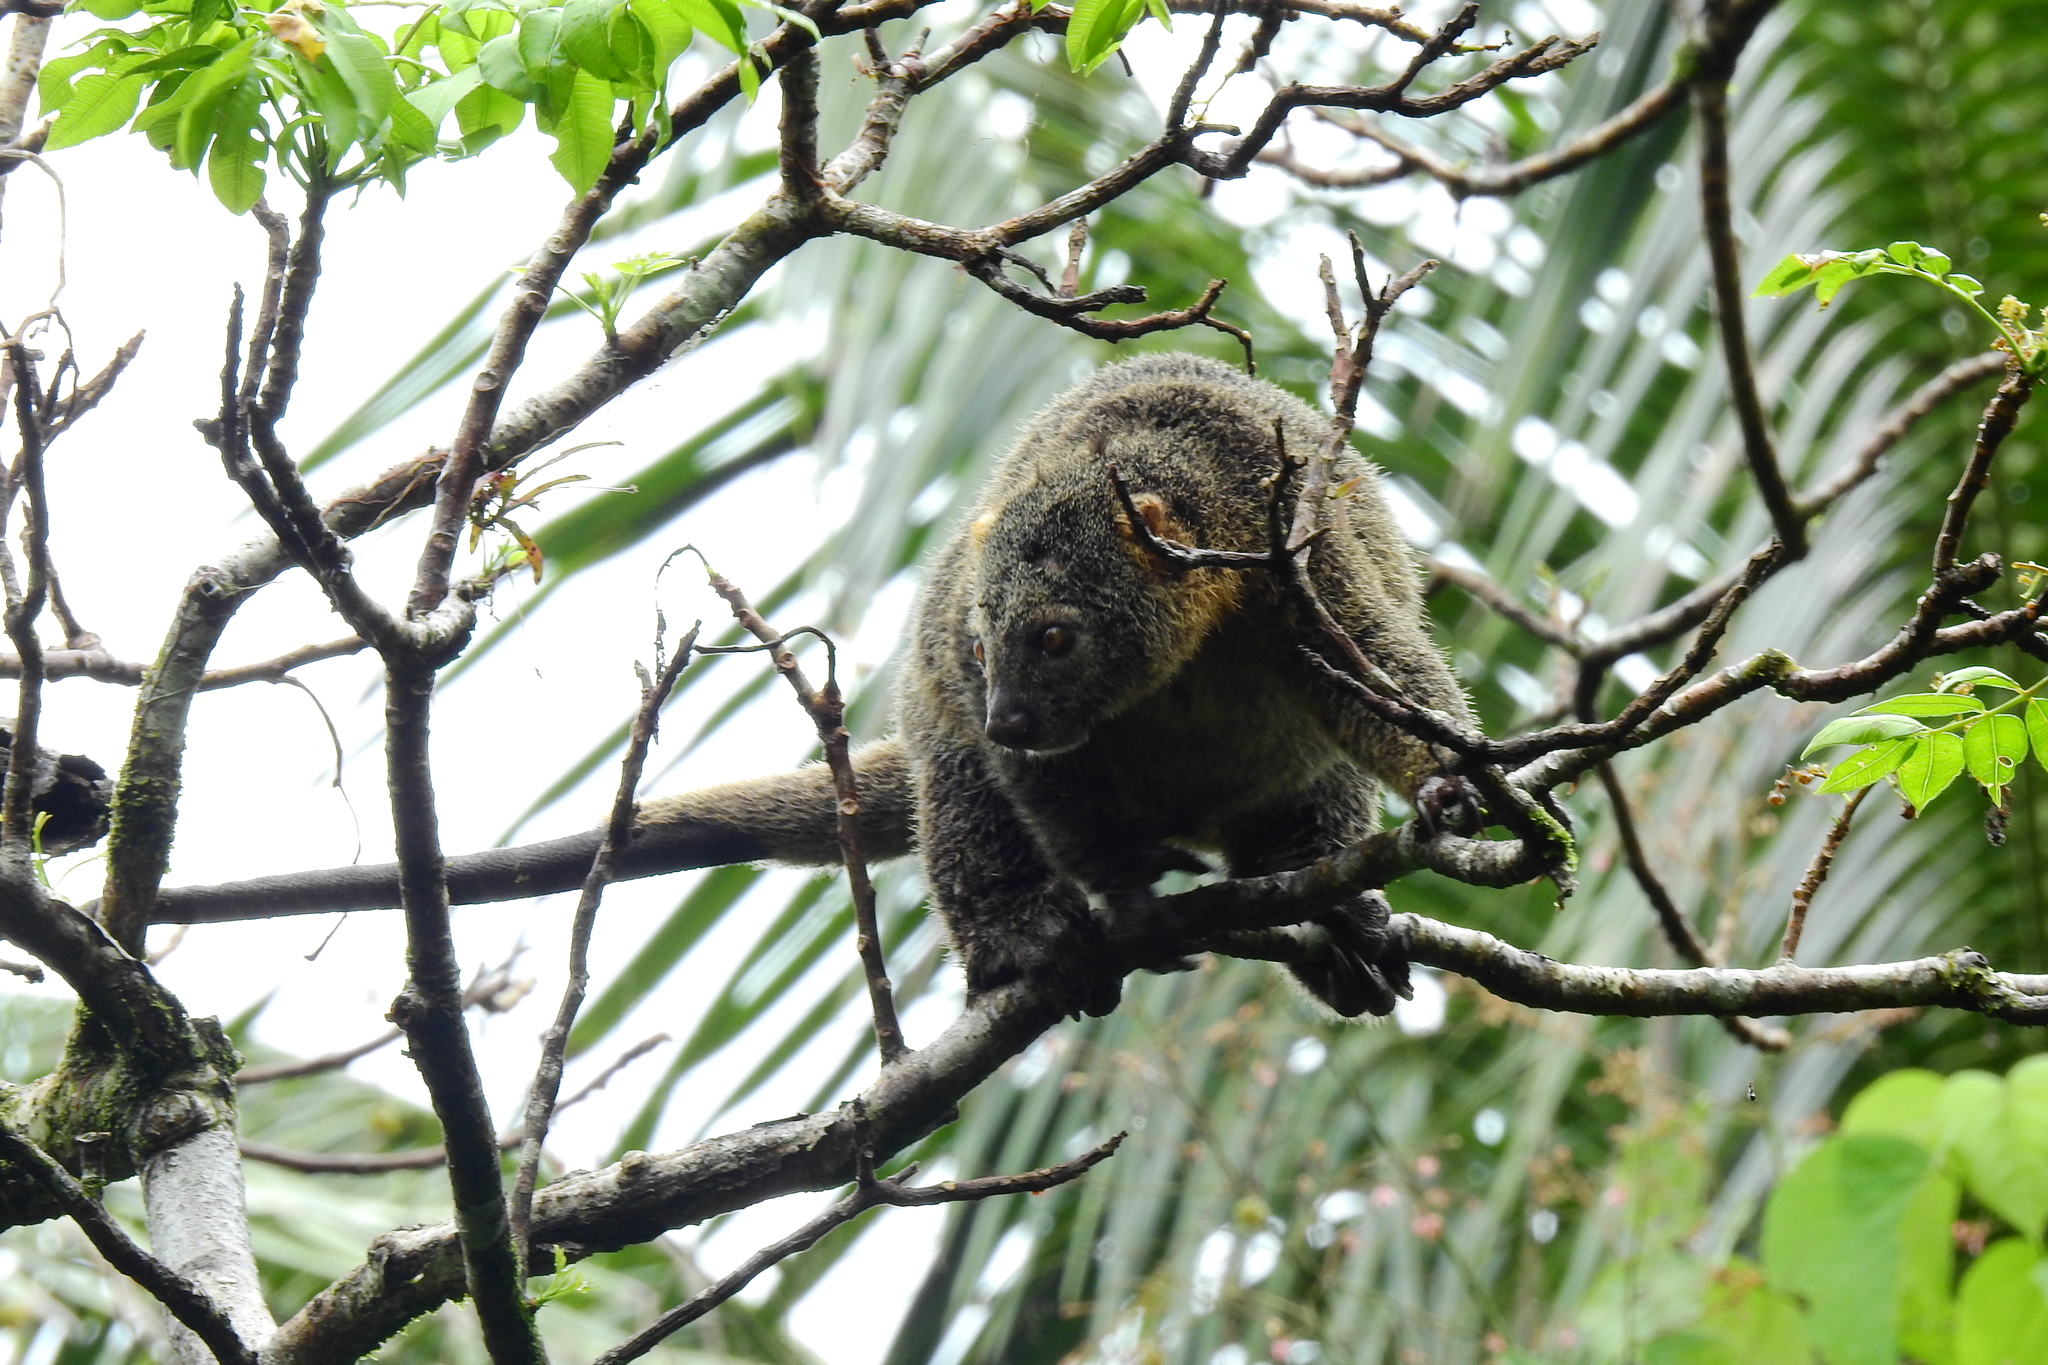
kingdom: Animalia
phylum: Chordata
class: Mammalia
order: Diprotodontia
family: Phalangeridae
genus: Ailurops
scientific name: Ailurops ursinus
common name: Sulawesi bear cuscus
